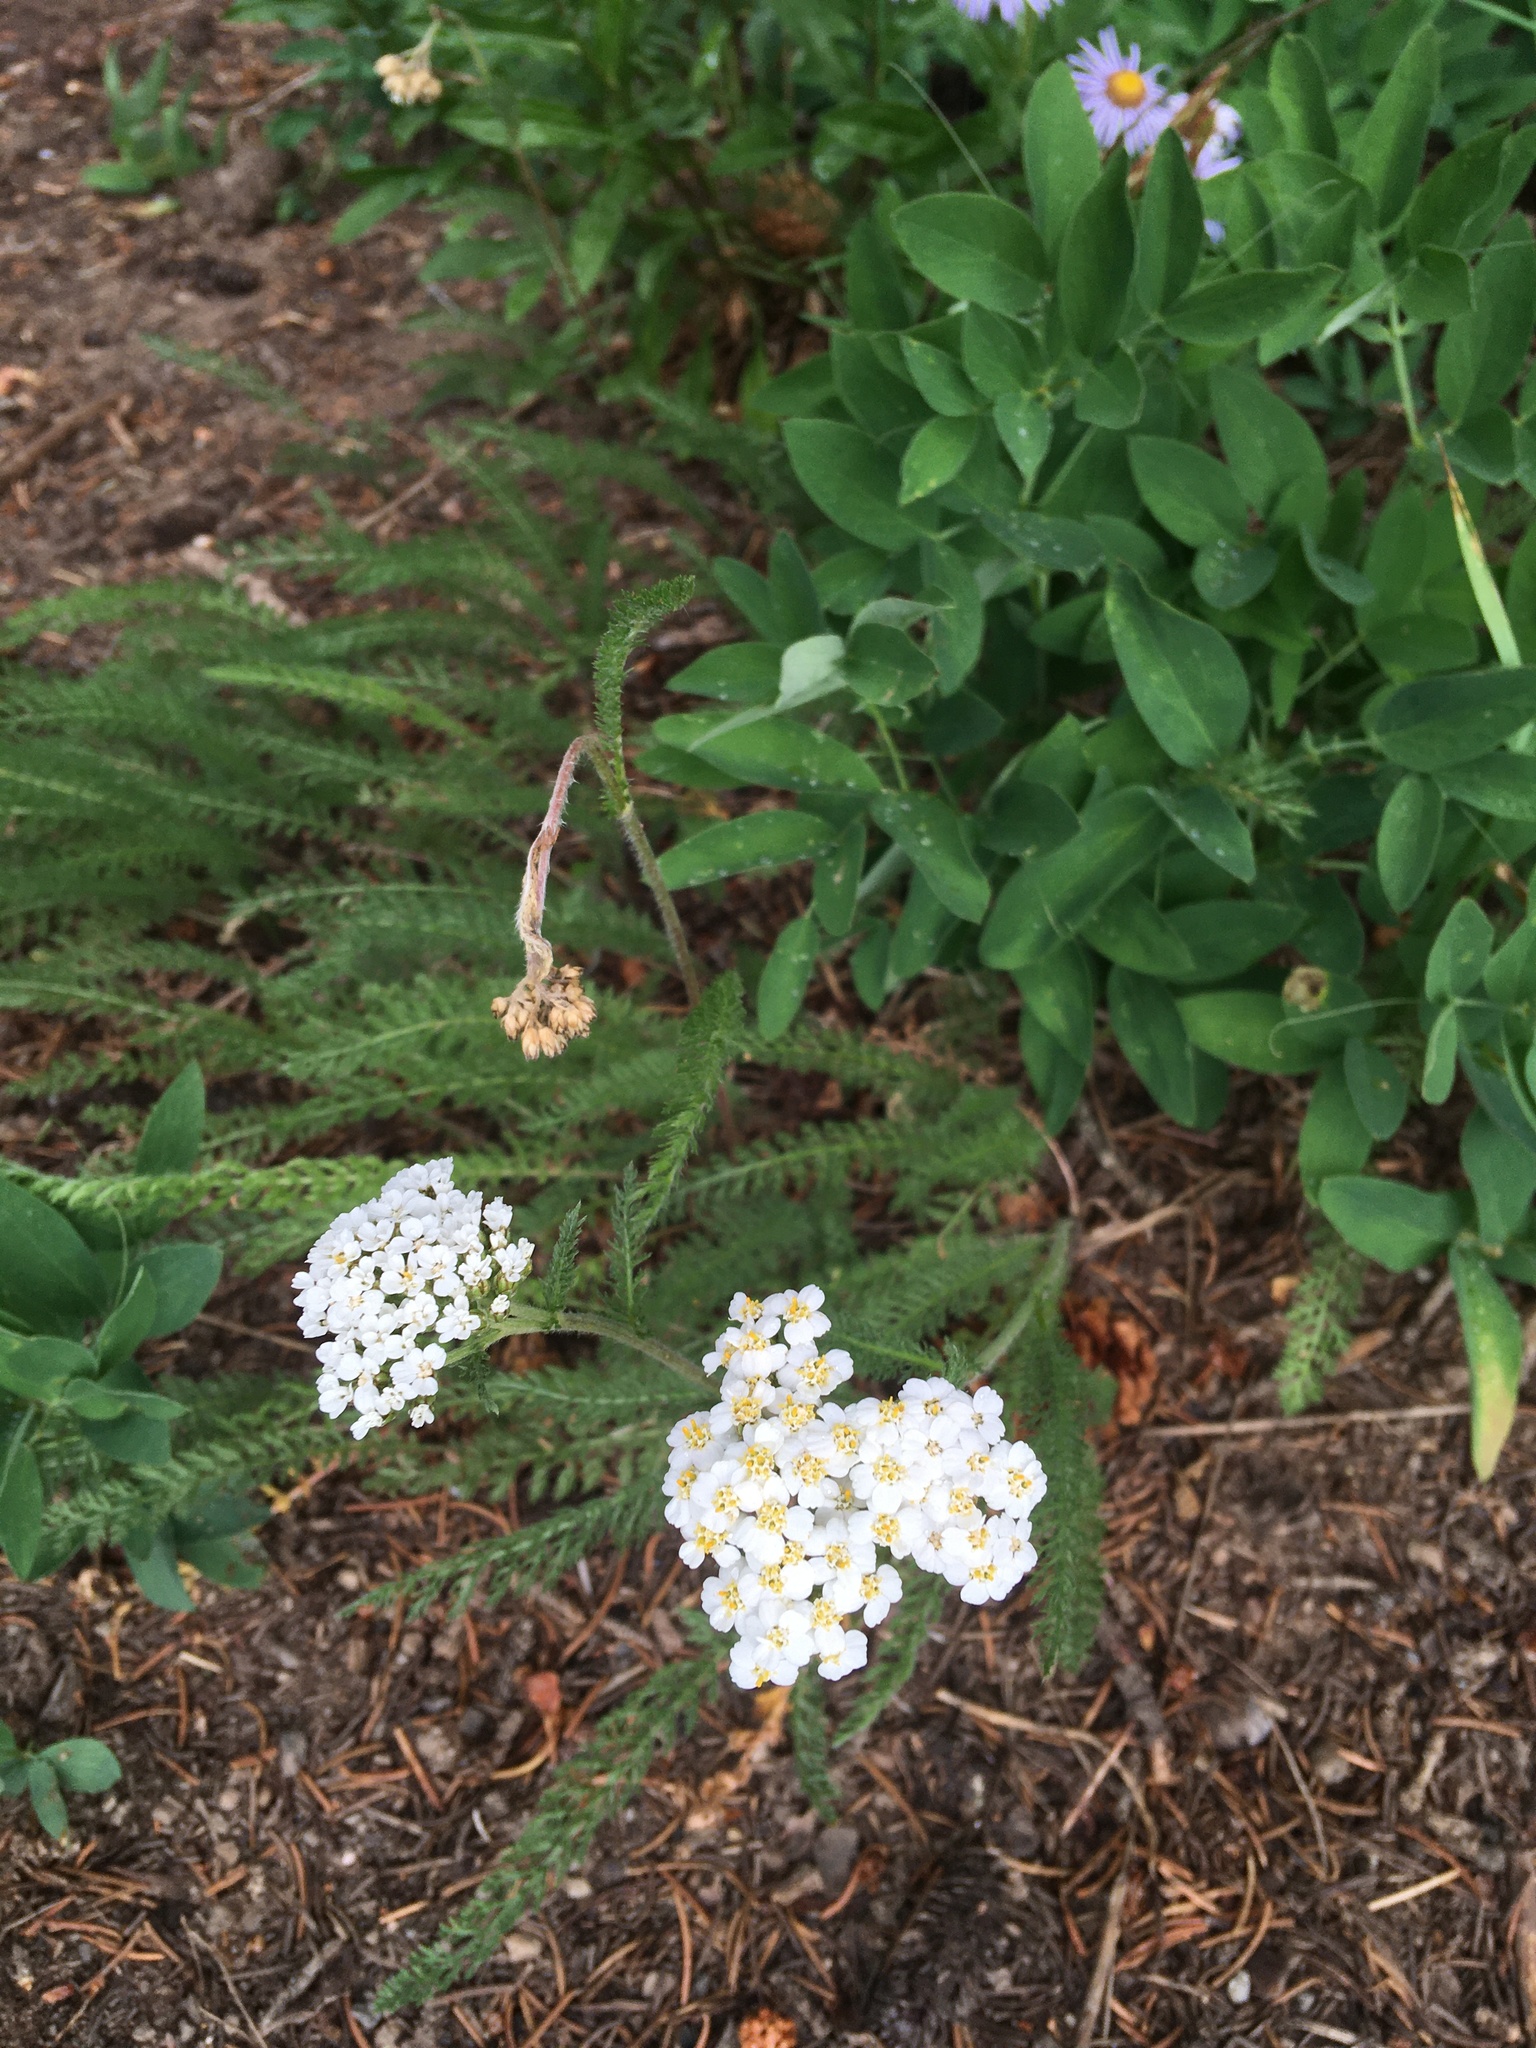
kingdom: Plantae
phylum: Tracheophyta
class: Magnoliopsida
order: Asterales
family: Asteraceae
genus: Achillea
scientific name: Achillea millefolium
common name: Yarrow
